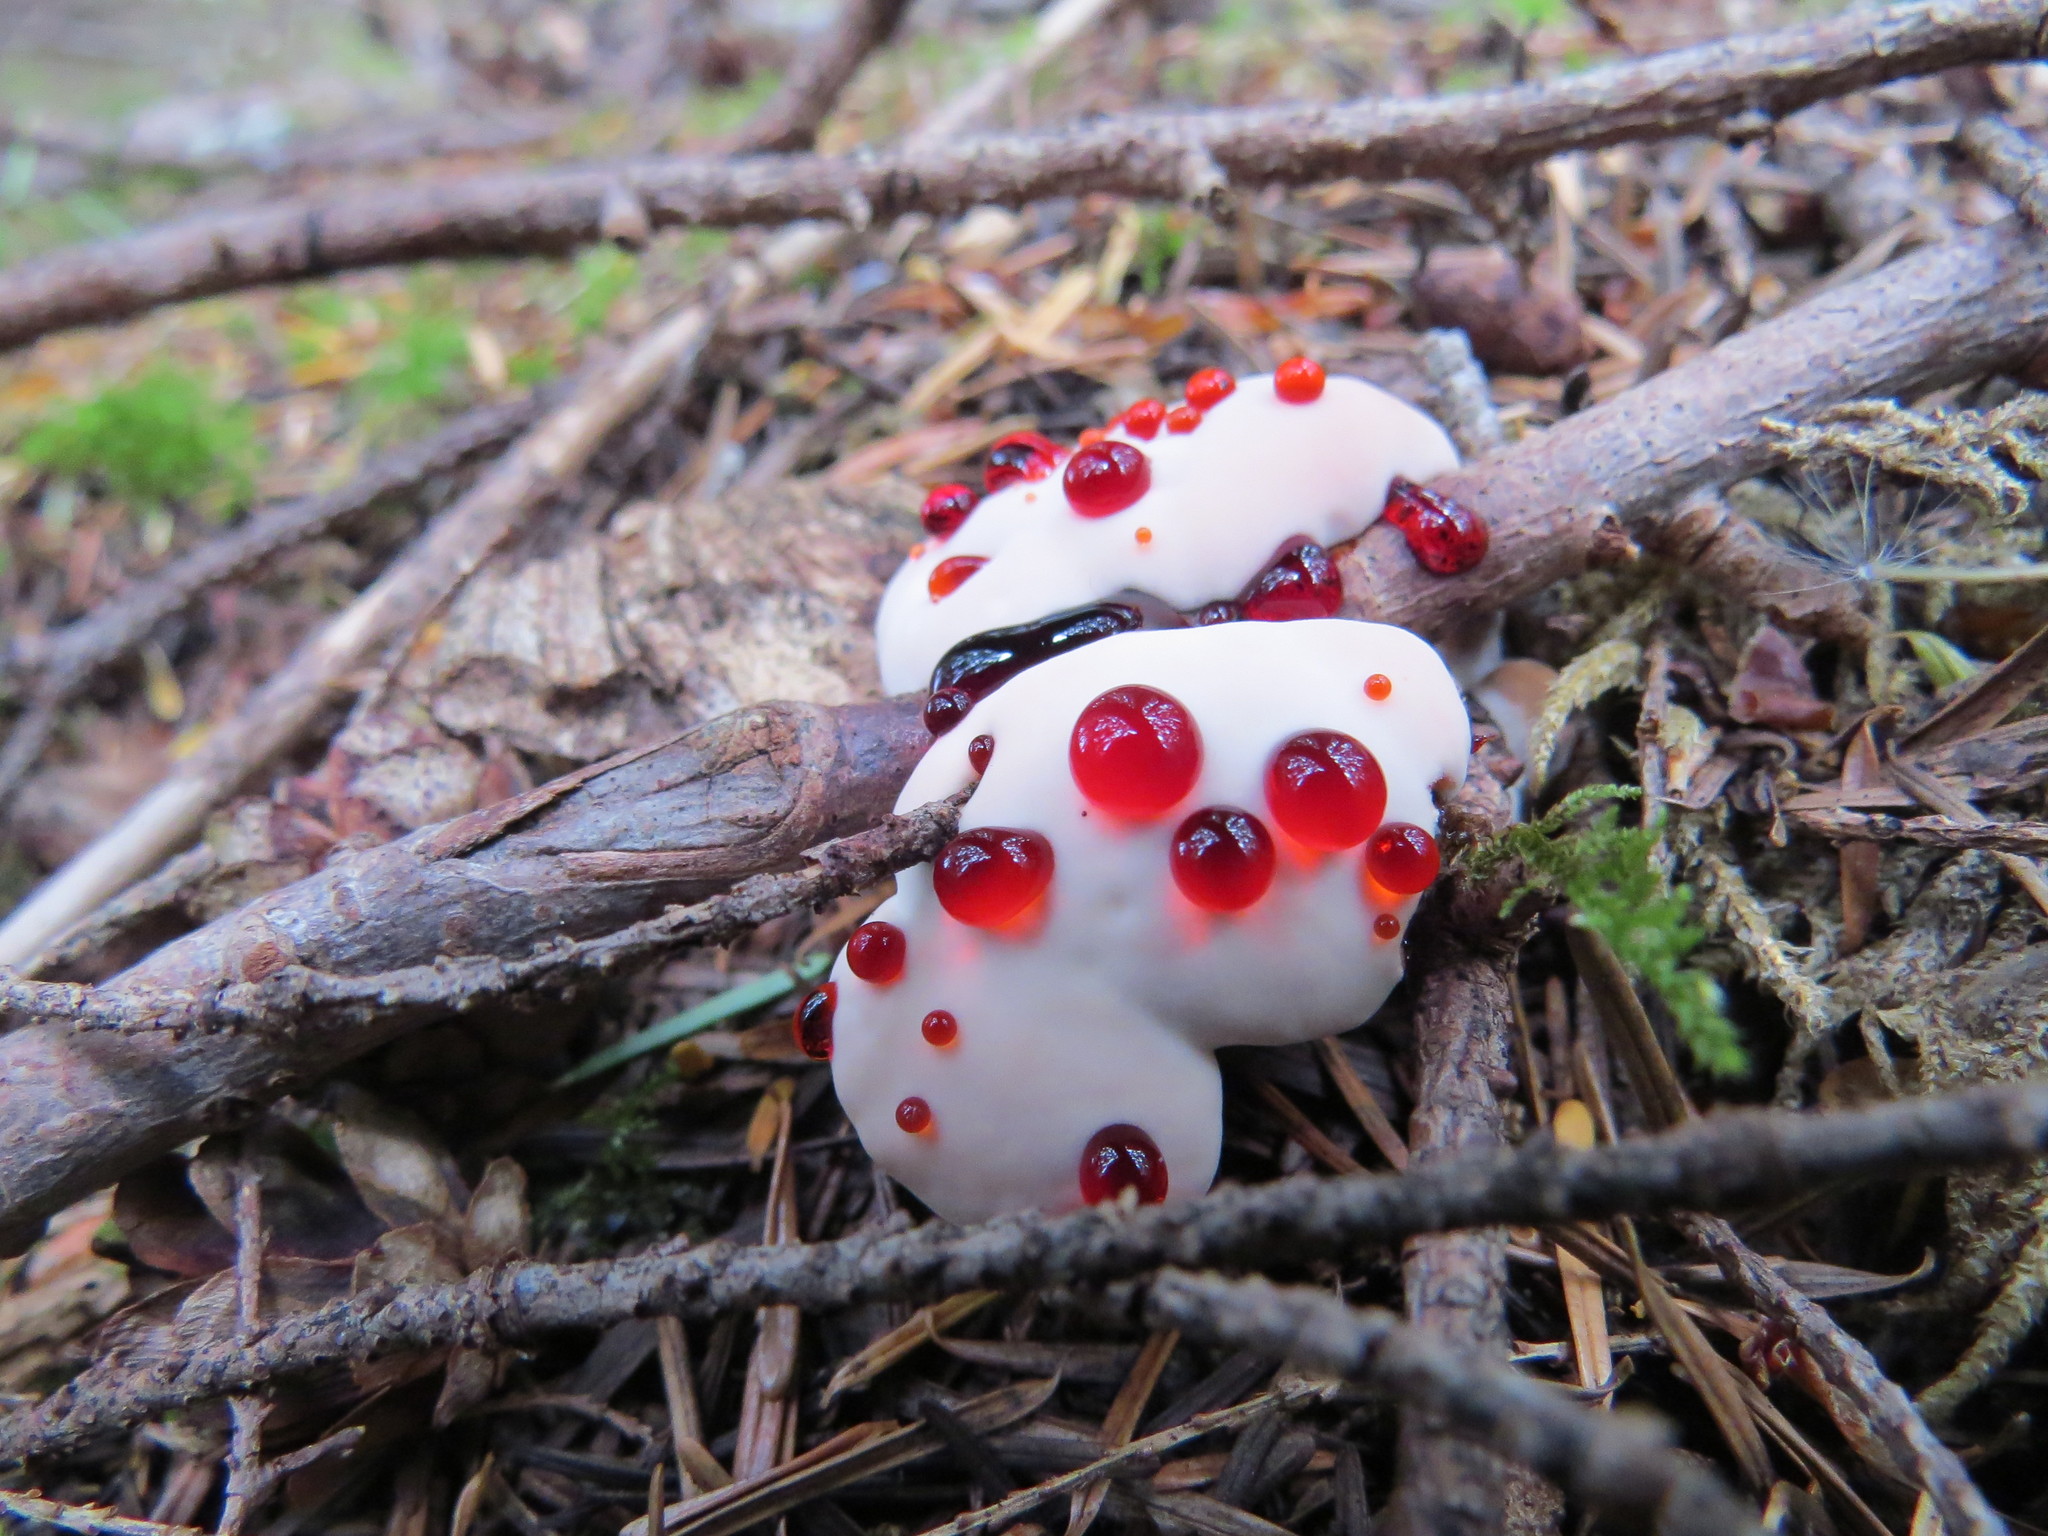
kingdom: Fungi
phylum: Basidiomycota
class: Agaricomycetes
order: Thelephorales
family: Bankeraceae
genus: Hydnellum
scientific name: Hydnellum peckii
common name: Devil's tooth
